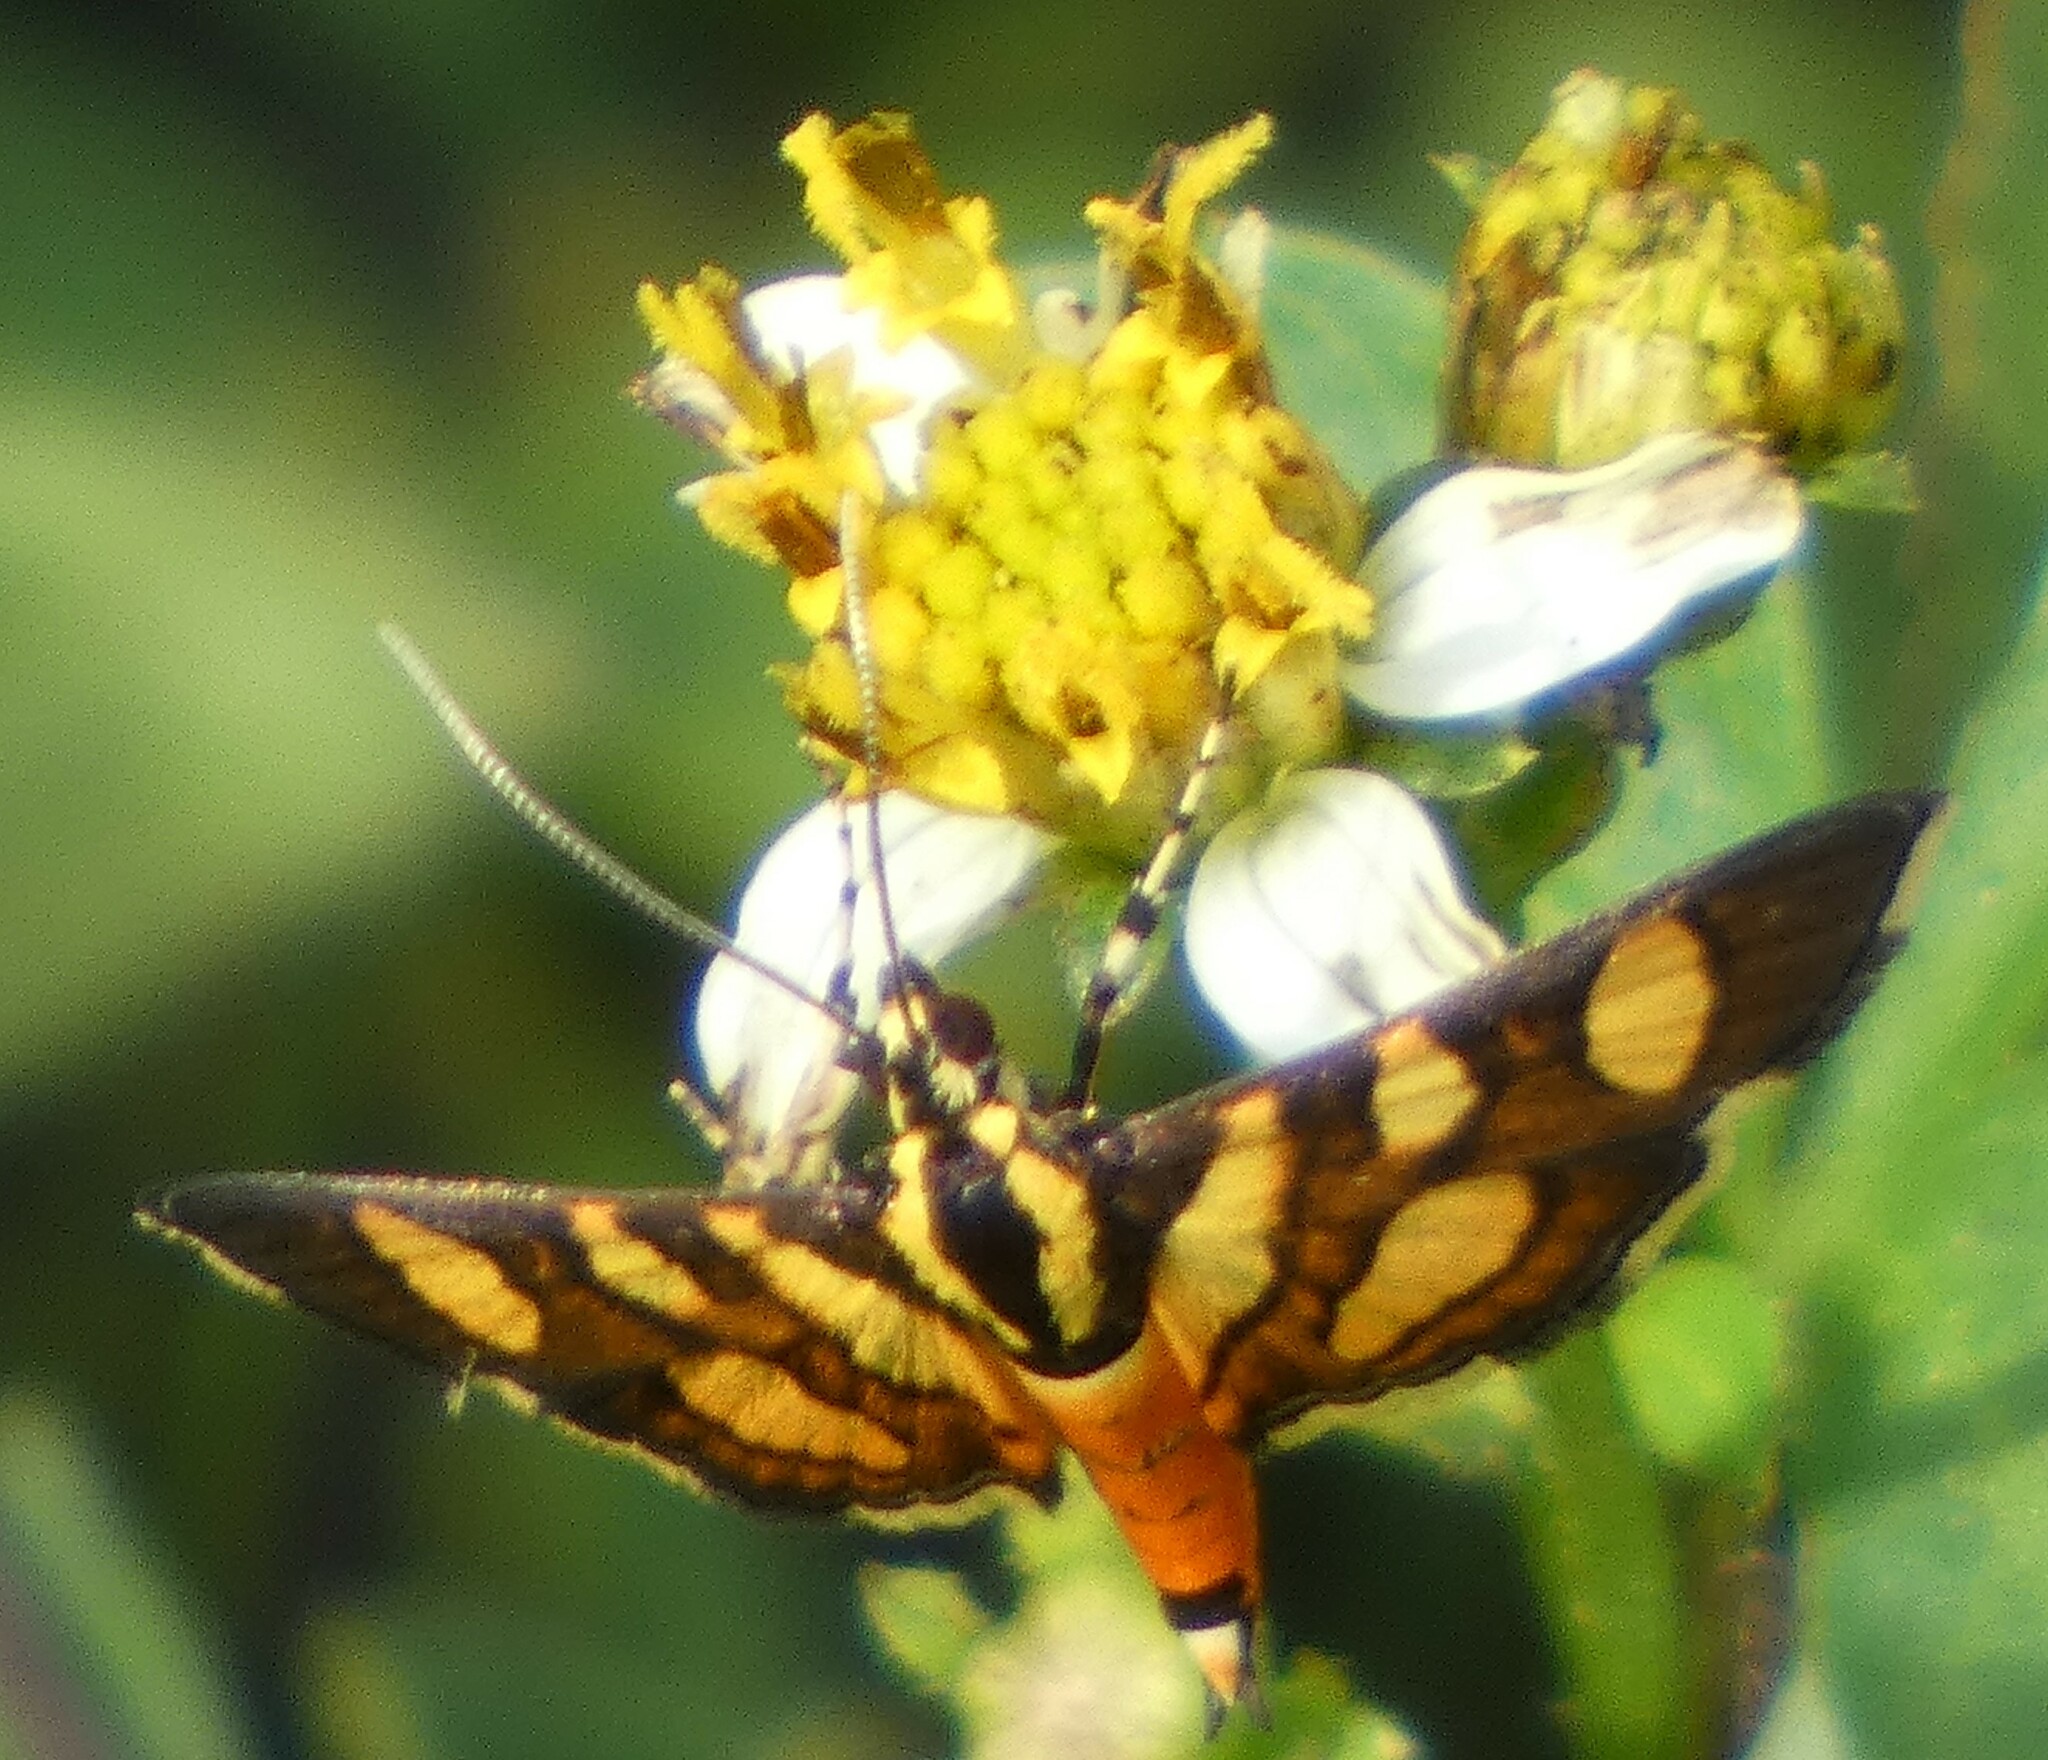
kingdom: Animalia
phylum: Arthropoda
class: Insecta
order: Lepidoptera
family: Crambidae
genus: Syngamia
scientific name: Syngamia florella
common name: Orange-spotted flower moth
